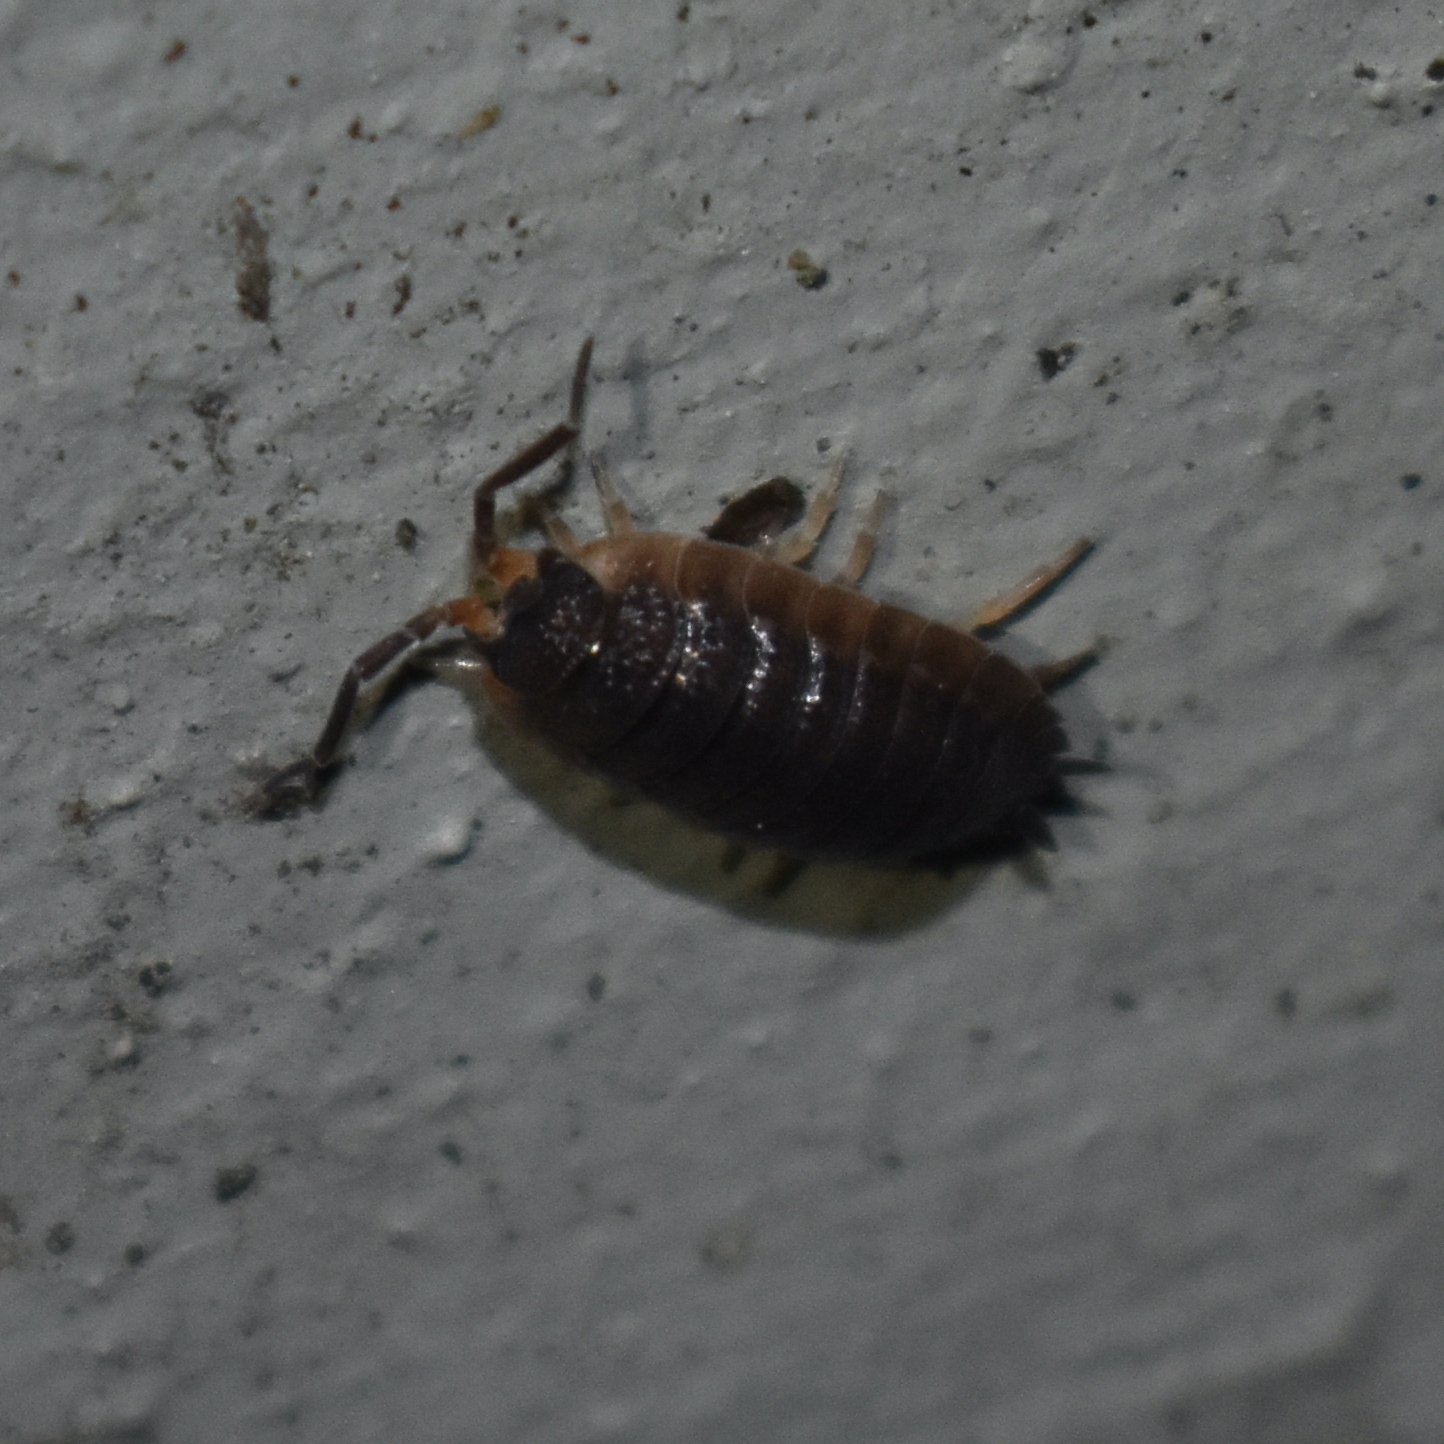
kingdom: Animalia
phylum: Arthropoda
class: Malacostraca
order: Isopoda
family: Porcellionidae
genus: Porcellio
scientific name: Porcellio scaber
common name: Common rough woodlouse
